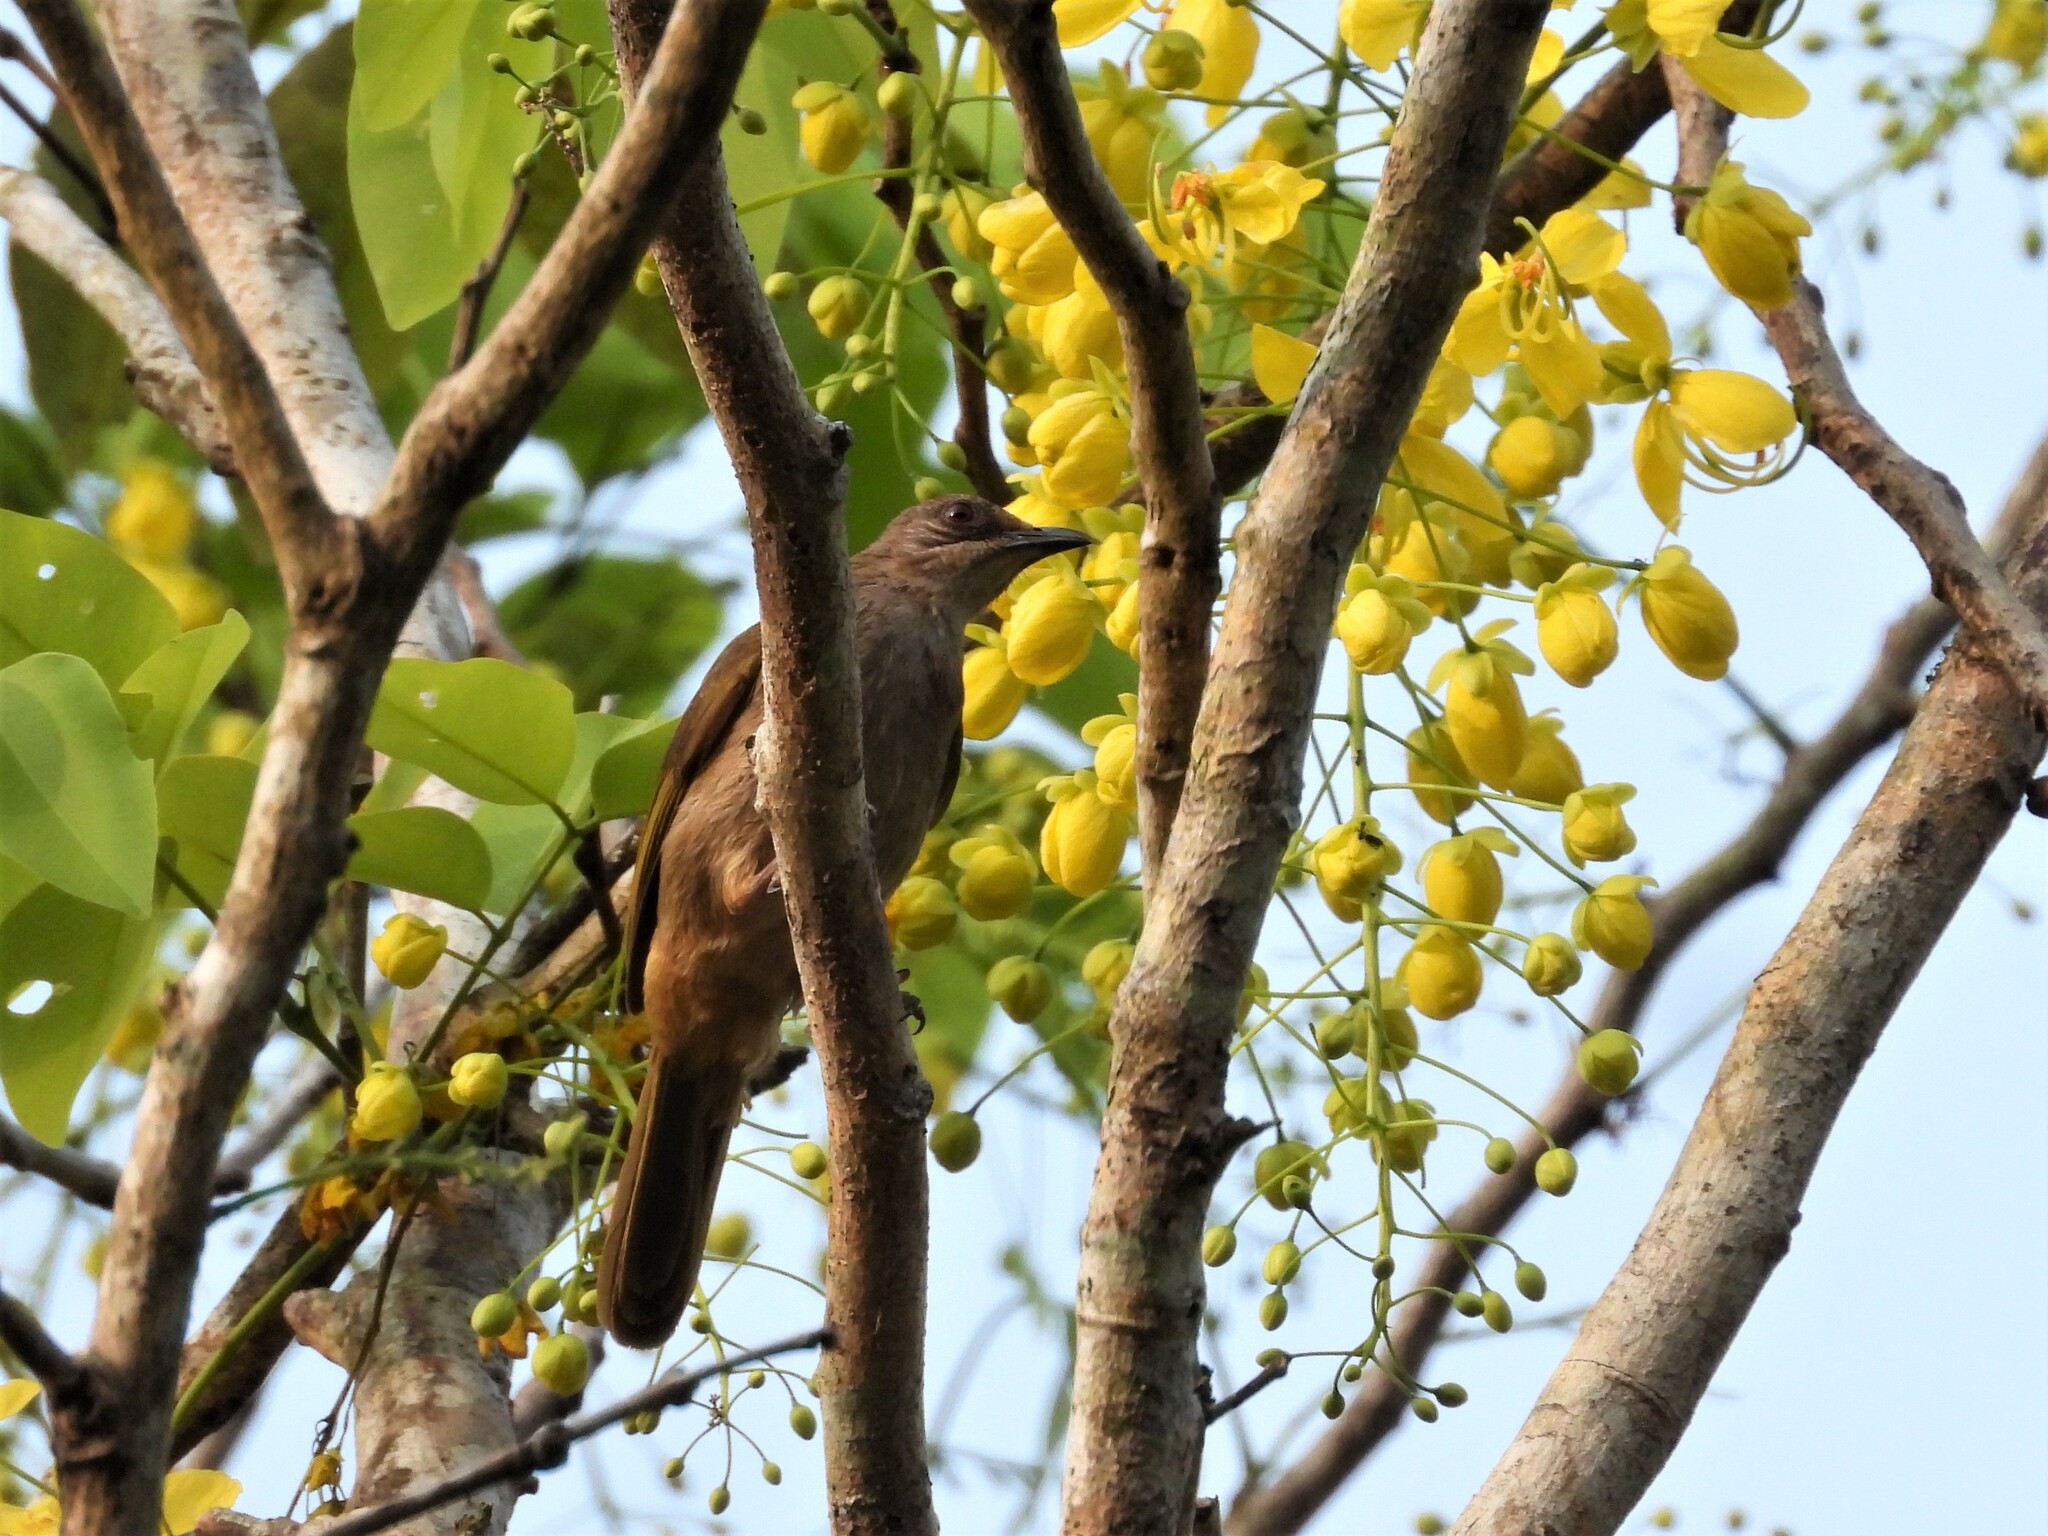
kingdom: Animalia
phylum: Chordata
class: Aves
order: Passeriformes
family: Pycnonotidae
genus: Pycnonotus
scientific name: Pycnonotus plumosus
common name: Olive-winged bulbul
